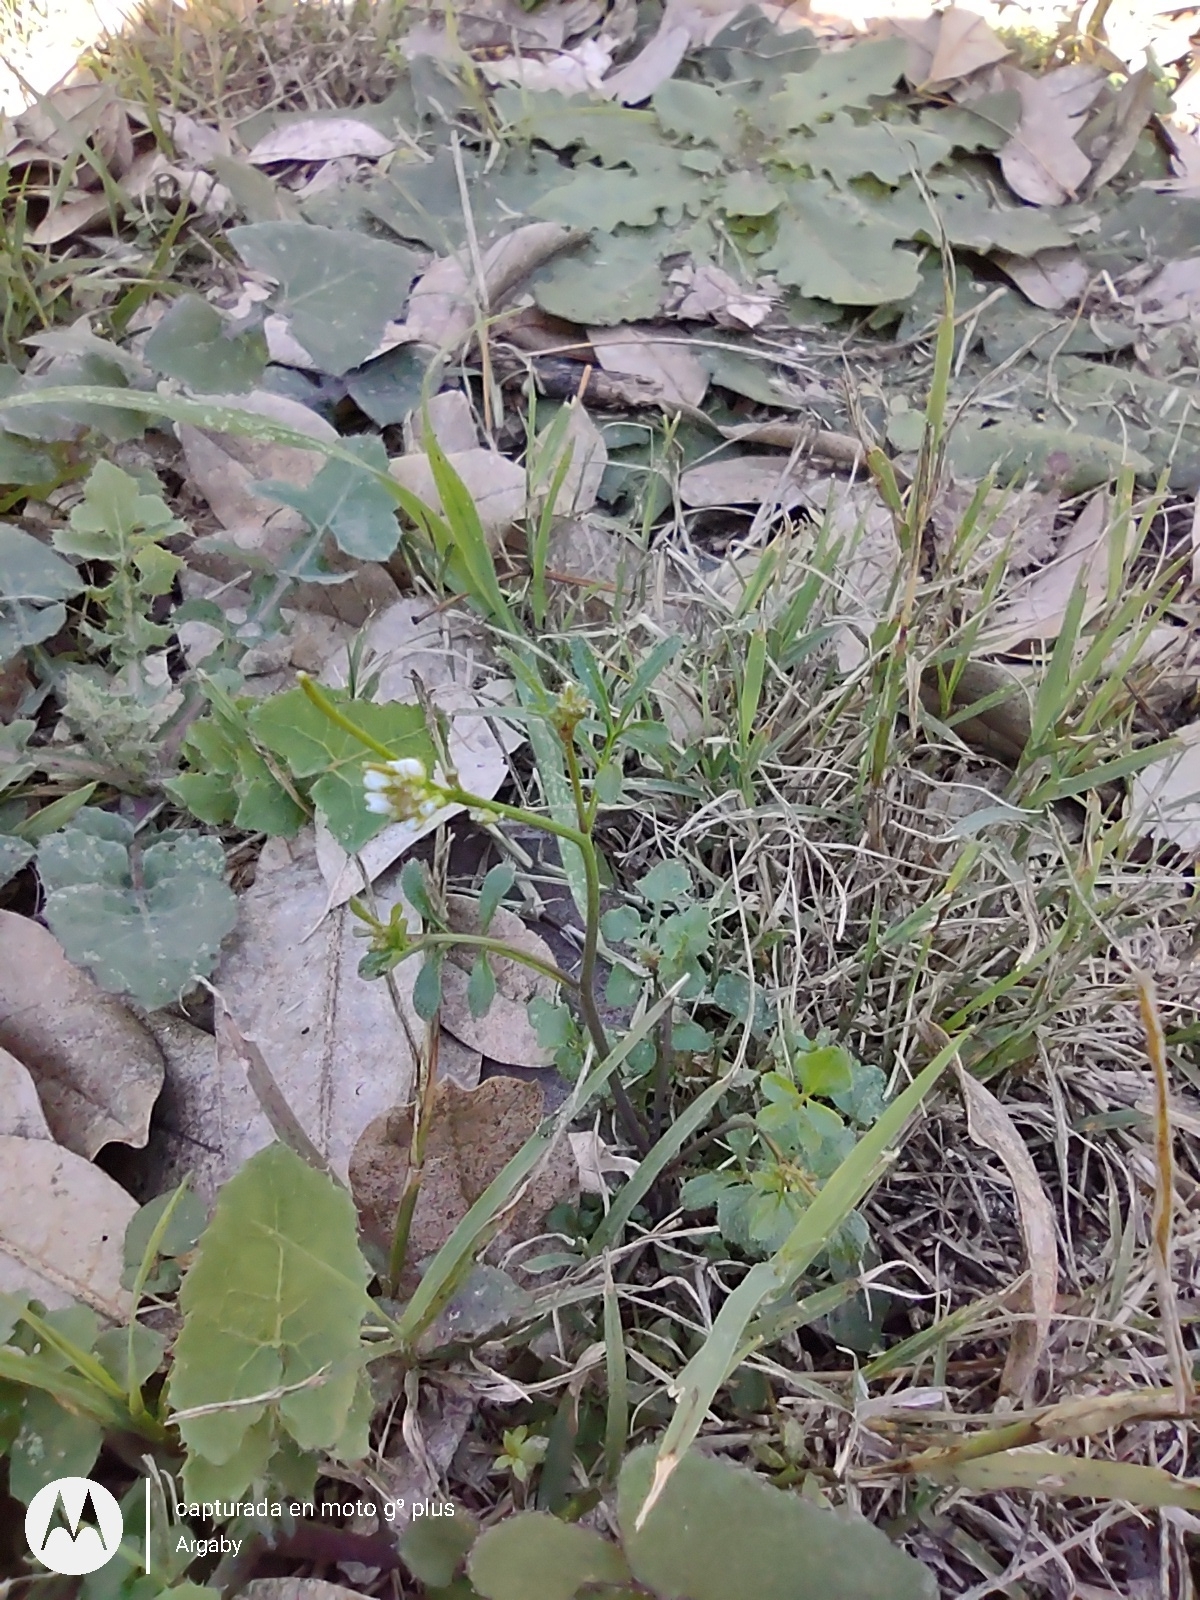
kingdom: Plantae
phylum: Tracheophyta
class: Magnoliopsida
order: Brassicales
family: Brassicaceae
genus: Cardamine
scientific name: Cardamine hirsuta
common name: Hairy bittercress
